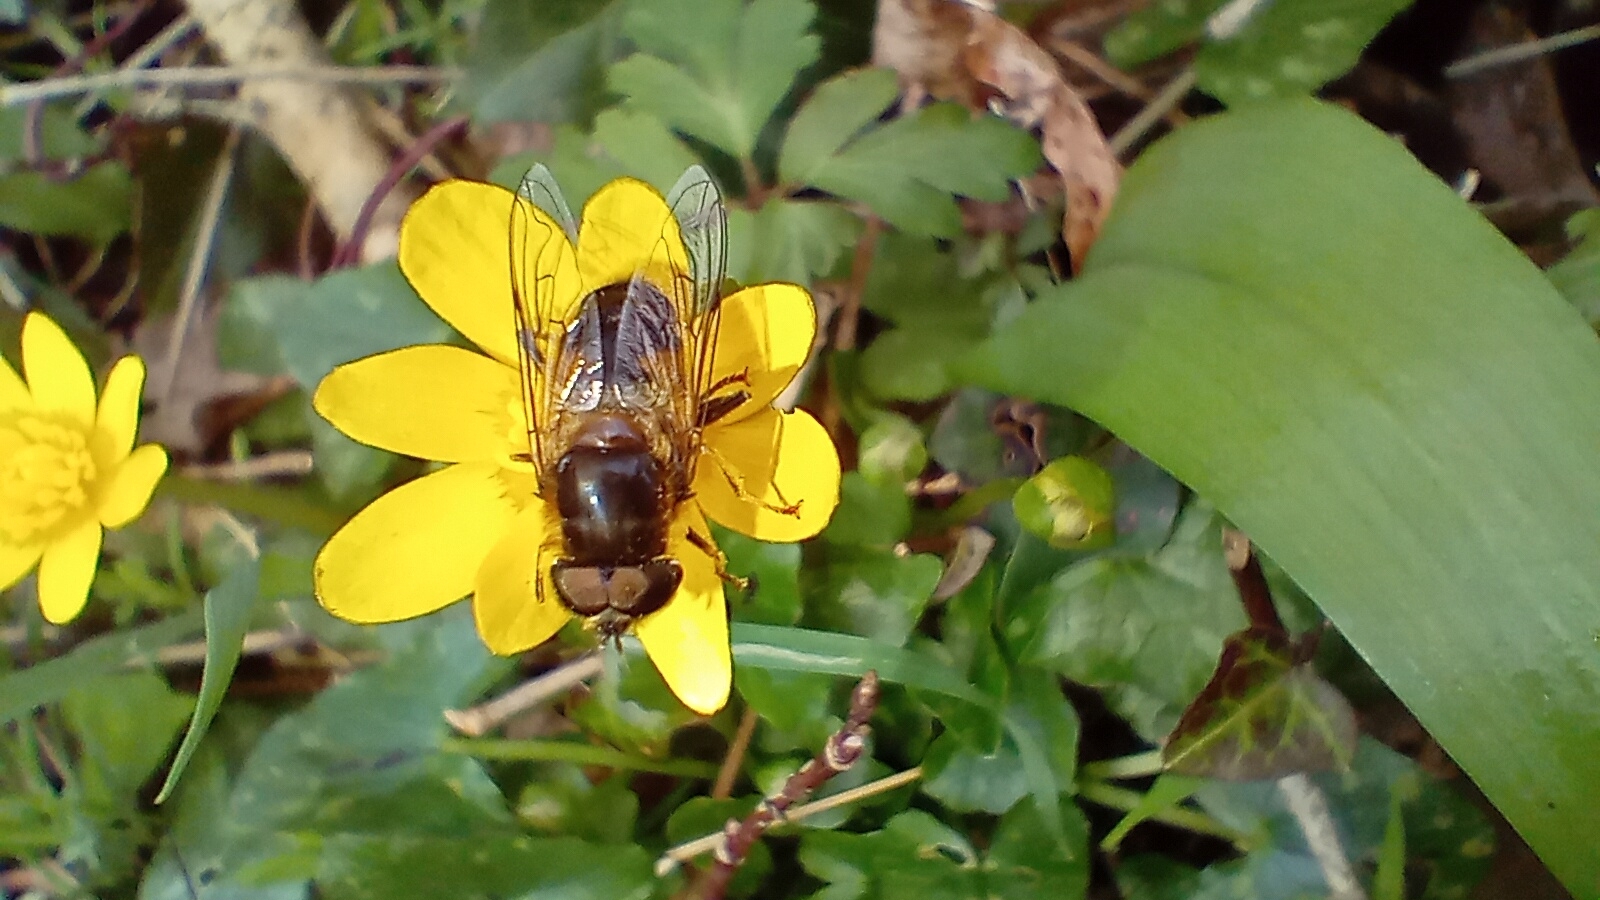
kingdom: Animalia
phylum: Arthropoda
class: Insecta
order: Diptera
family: Syrphidae
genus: Eristalis
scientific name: Eristalis pertinax
